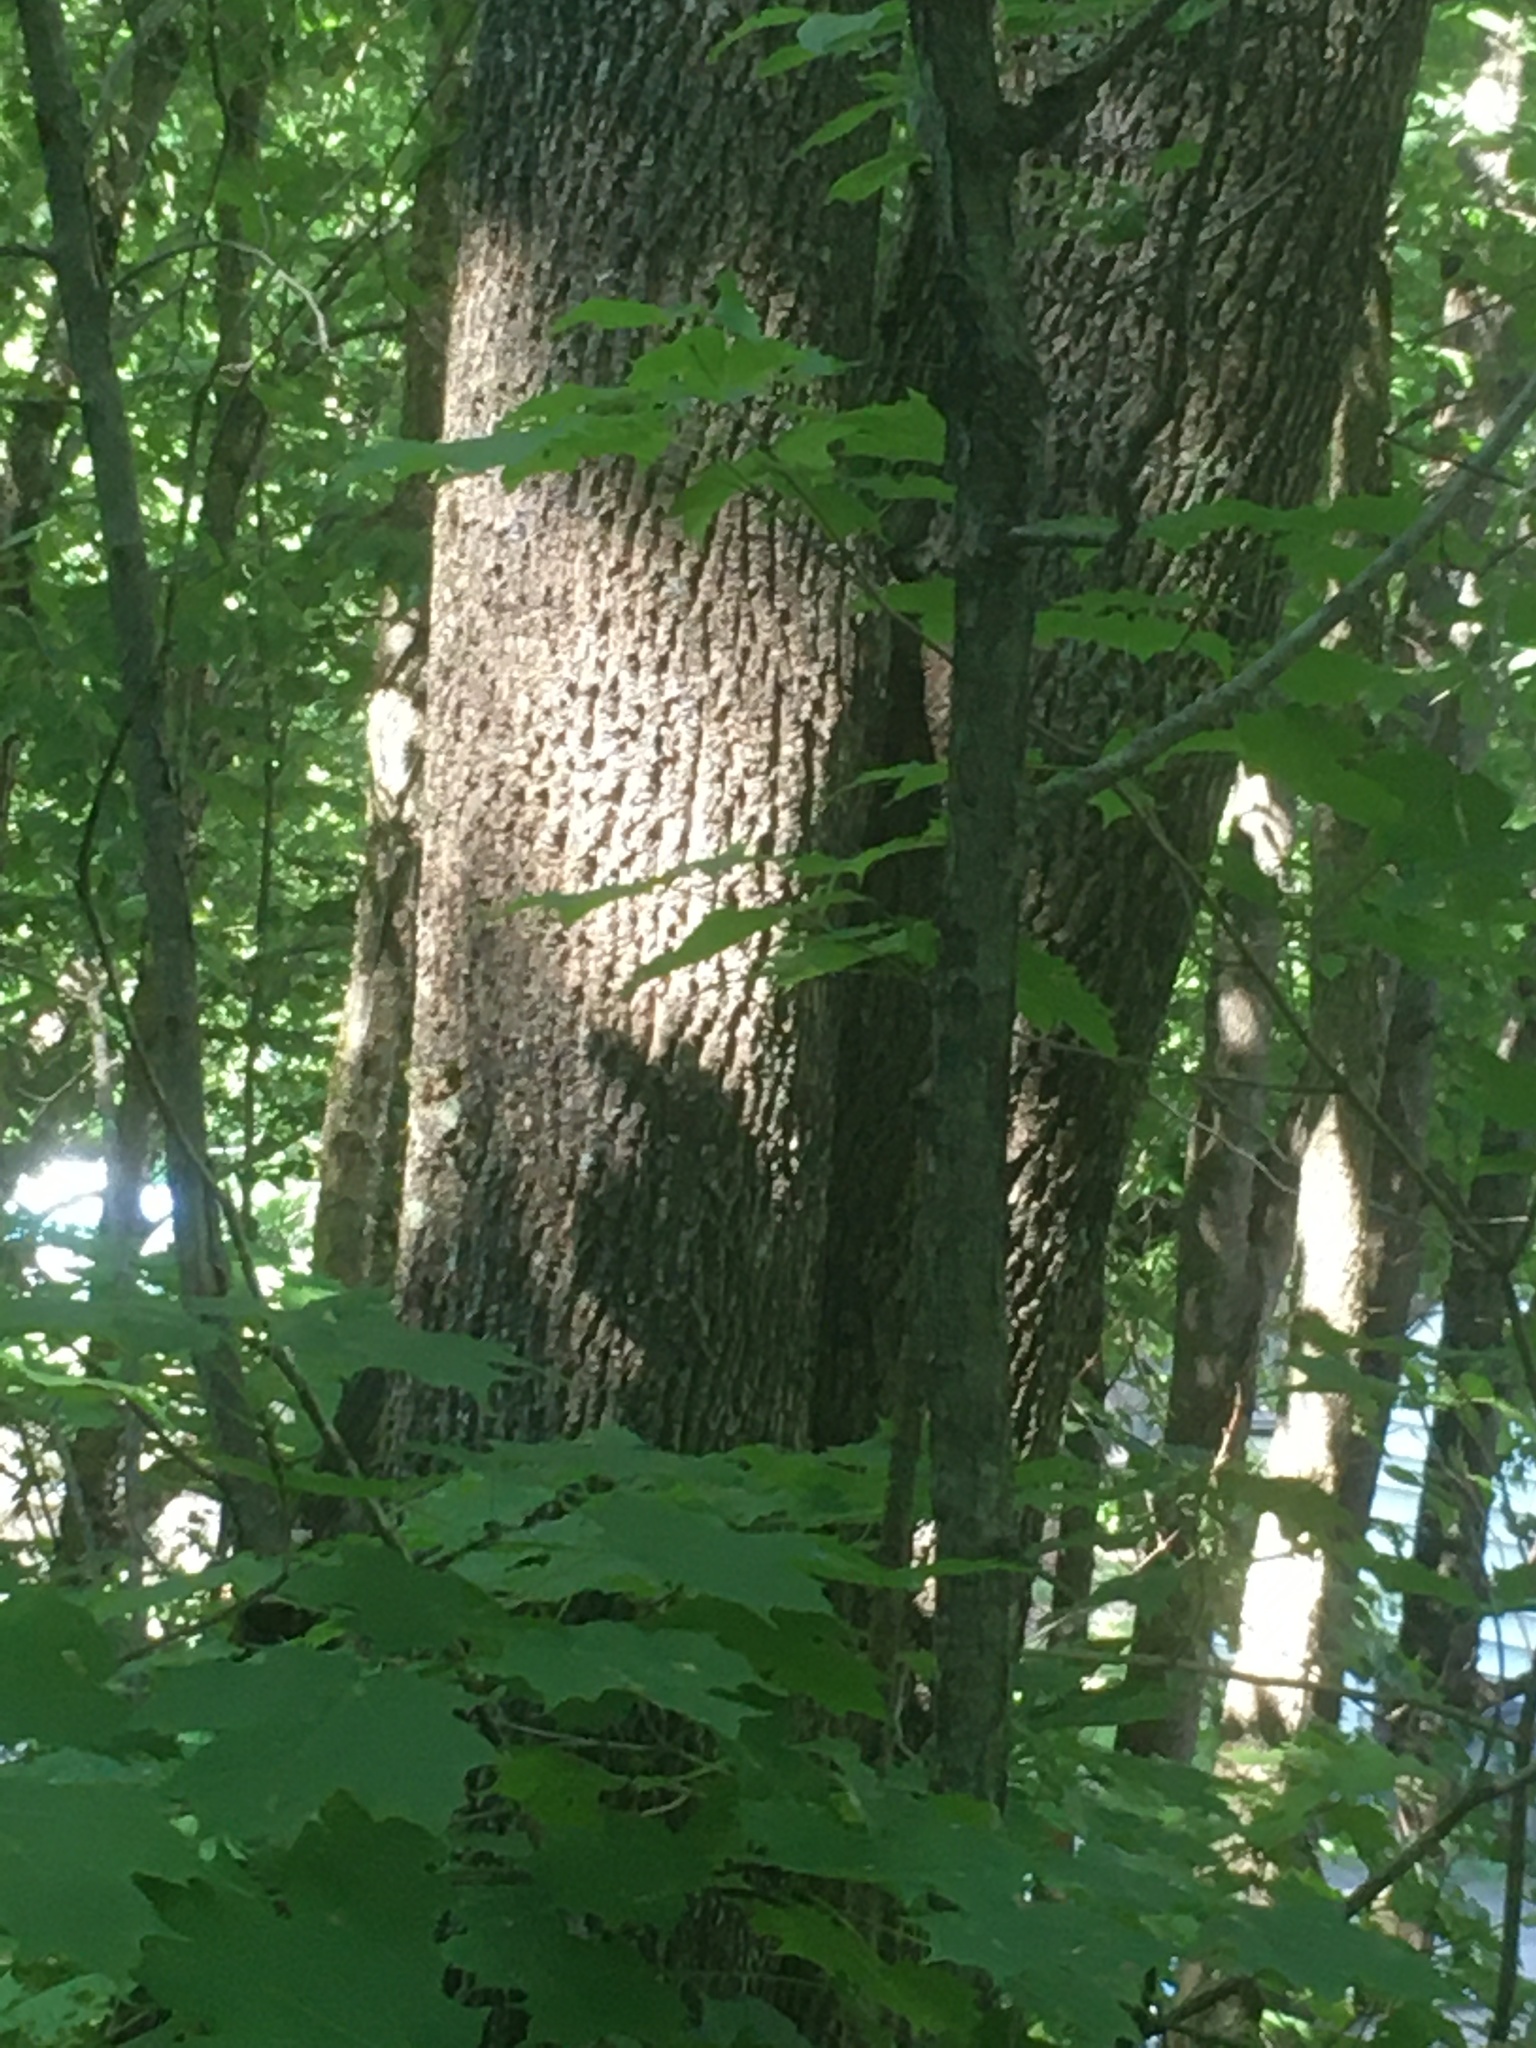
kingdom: Plantae
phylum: Tracheophyta
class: Magnoliopsida
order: Lamiales
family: Oleaceae
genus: Fraxinus
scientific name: Fraxinus americana
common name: White ash
